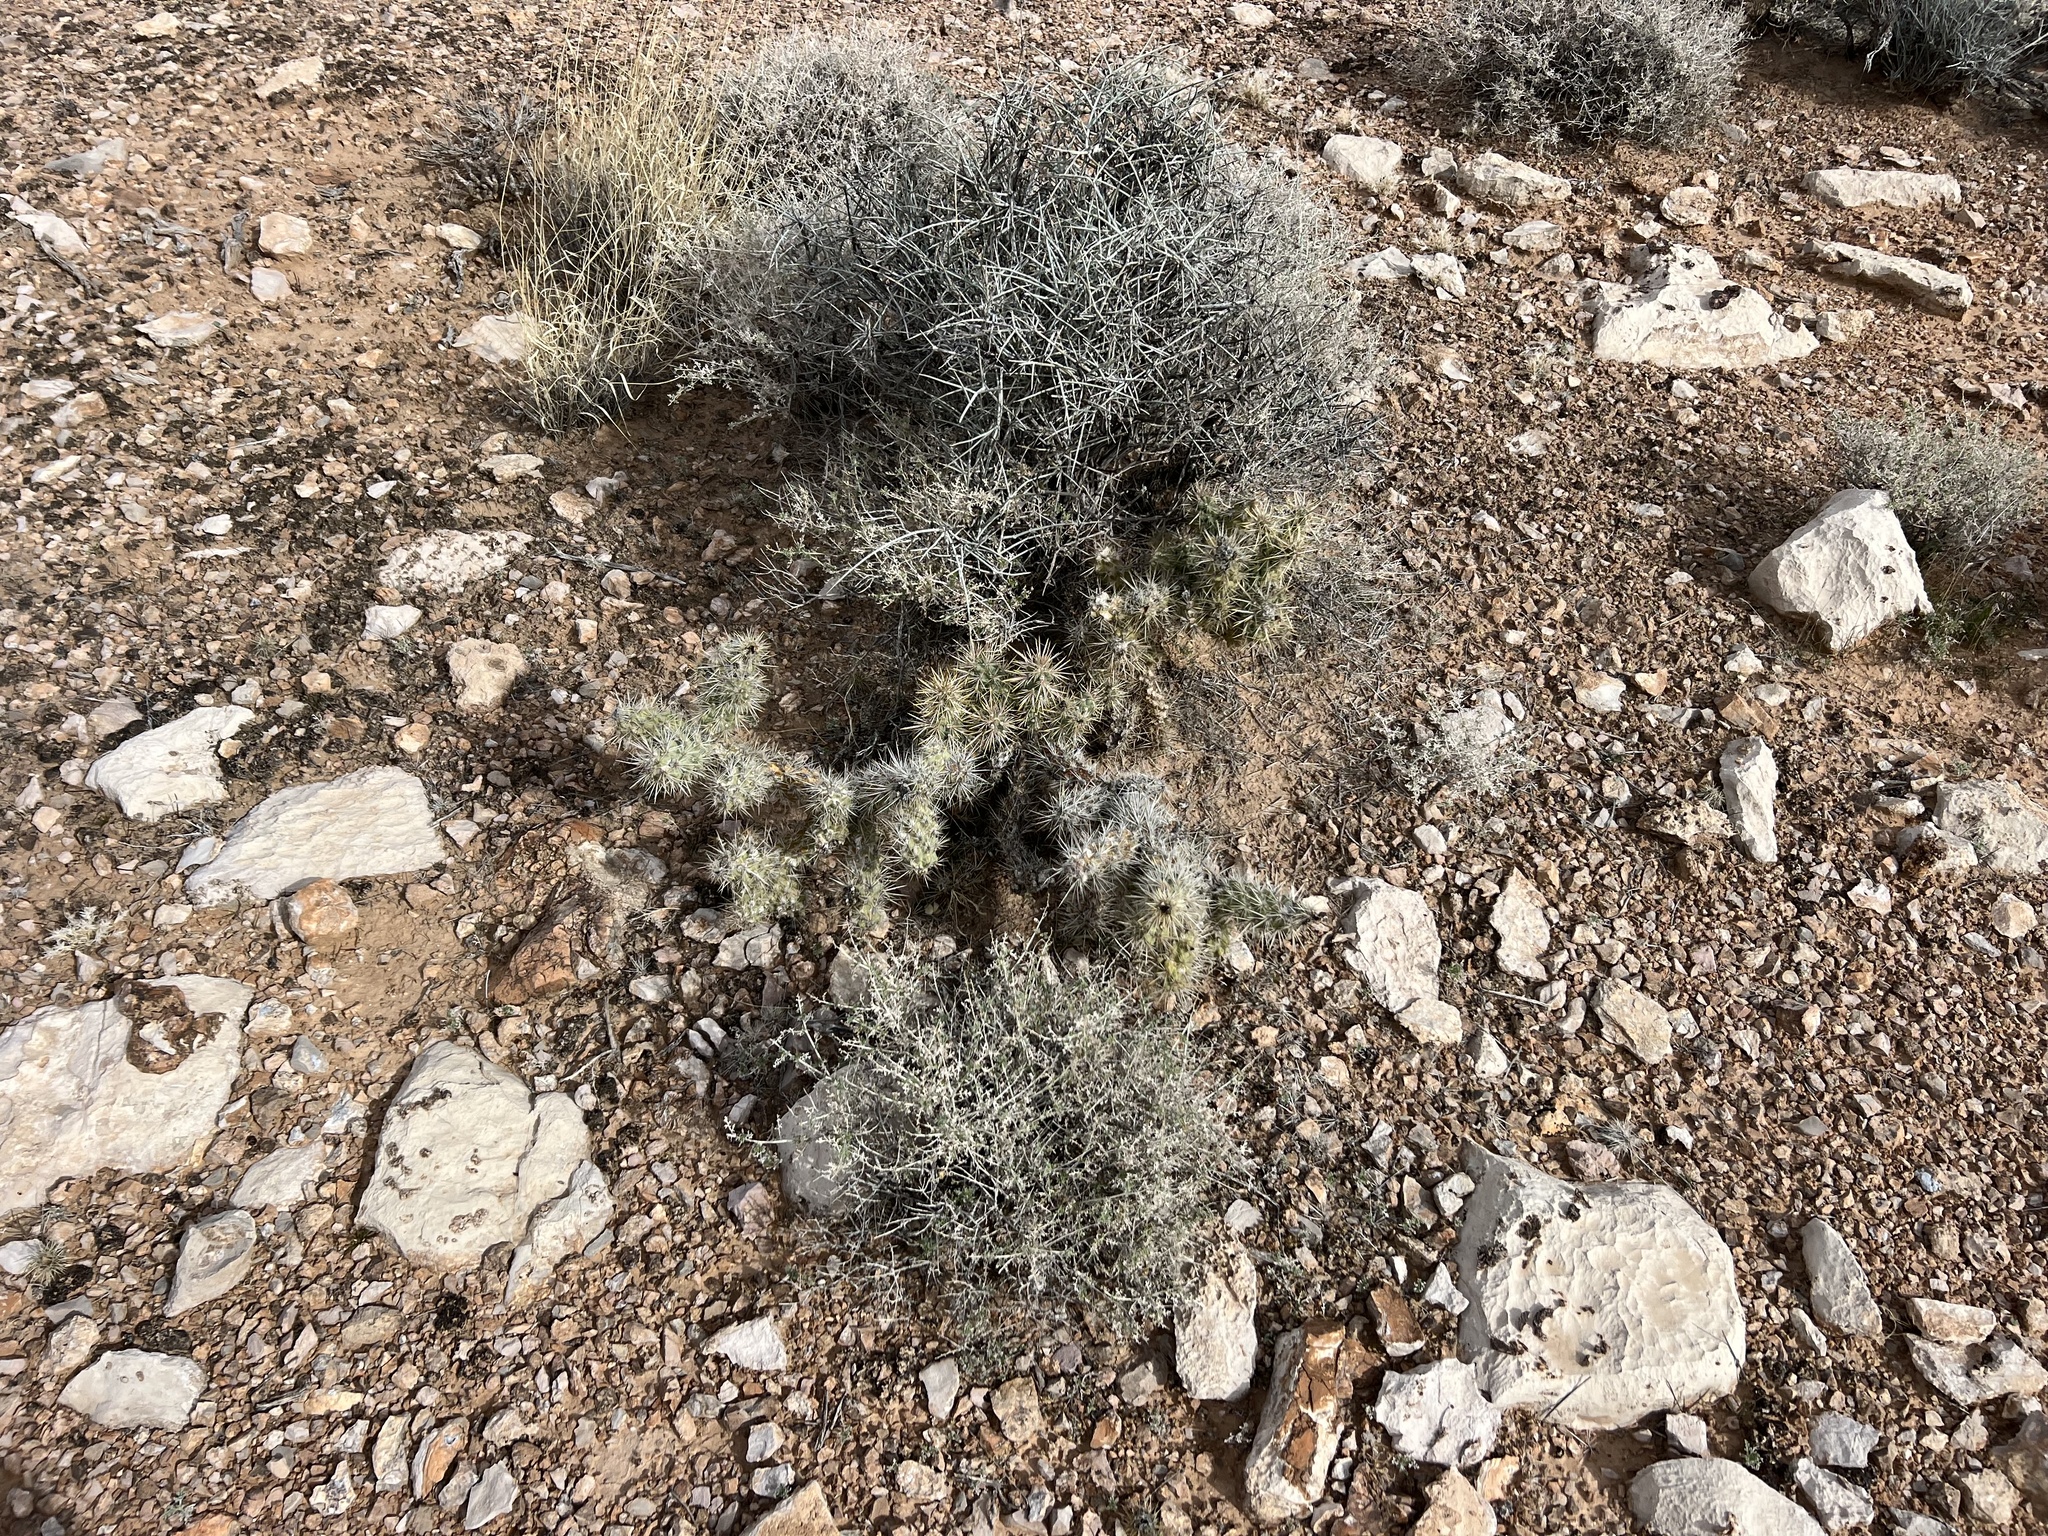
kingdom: Plantae
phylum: Tracheophyta
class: Magnoliopsida
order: Caryophyllales
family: Cactaceae
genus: Cylindropuntia
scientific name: Cylindropuntia echinocarpa
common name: Ground cholla
